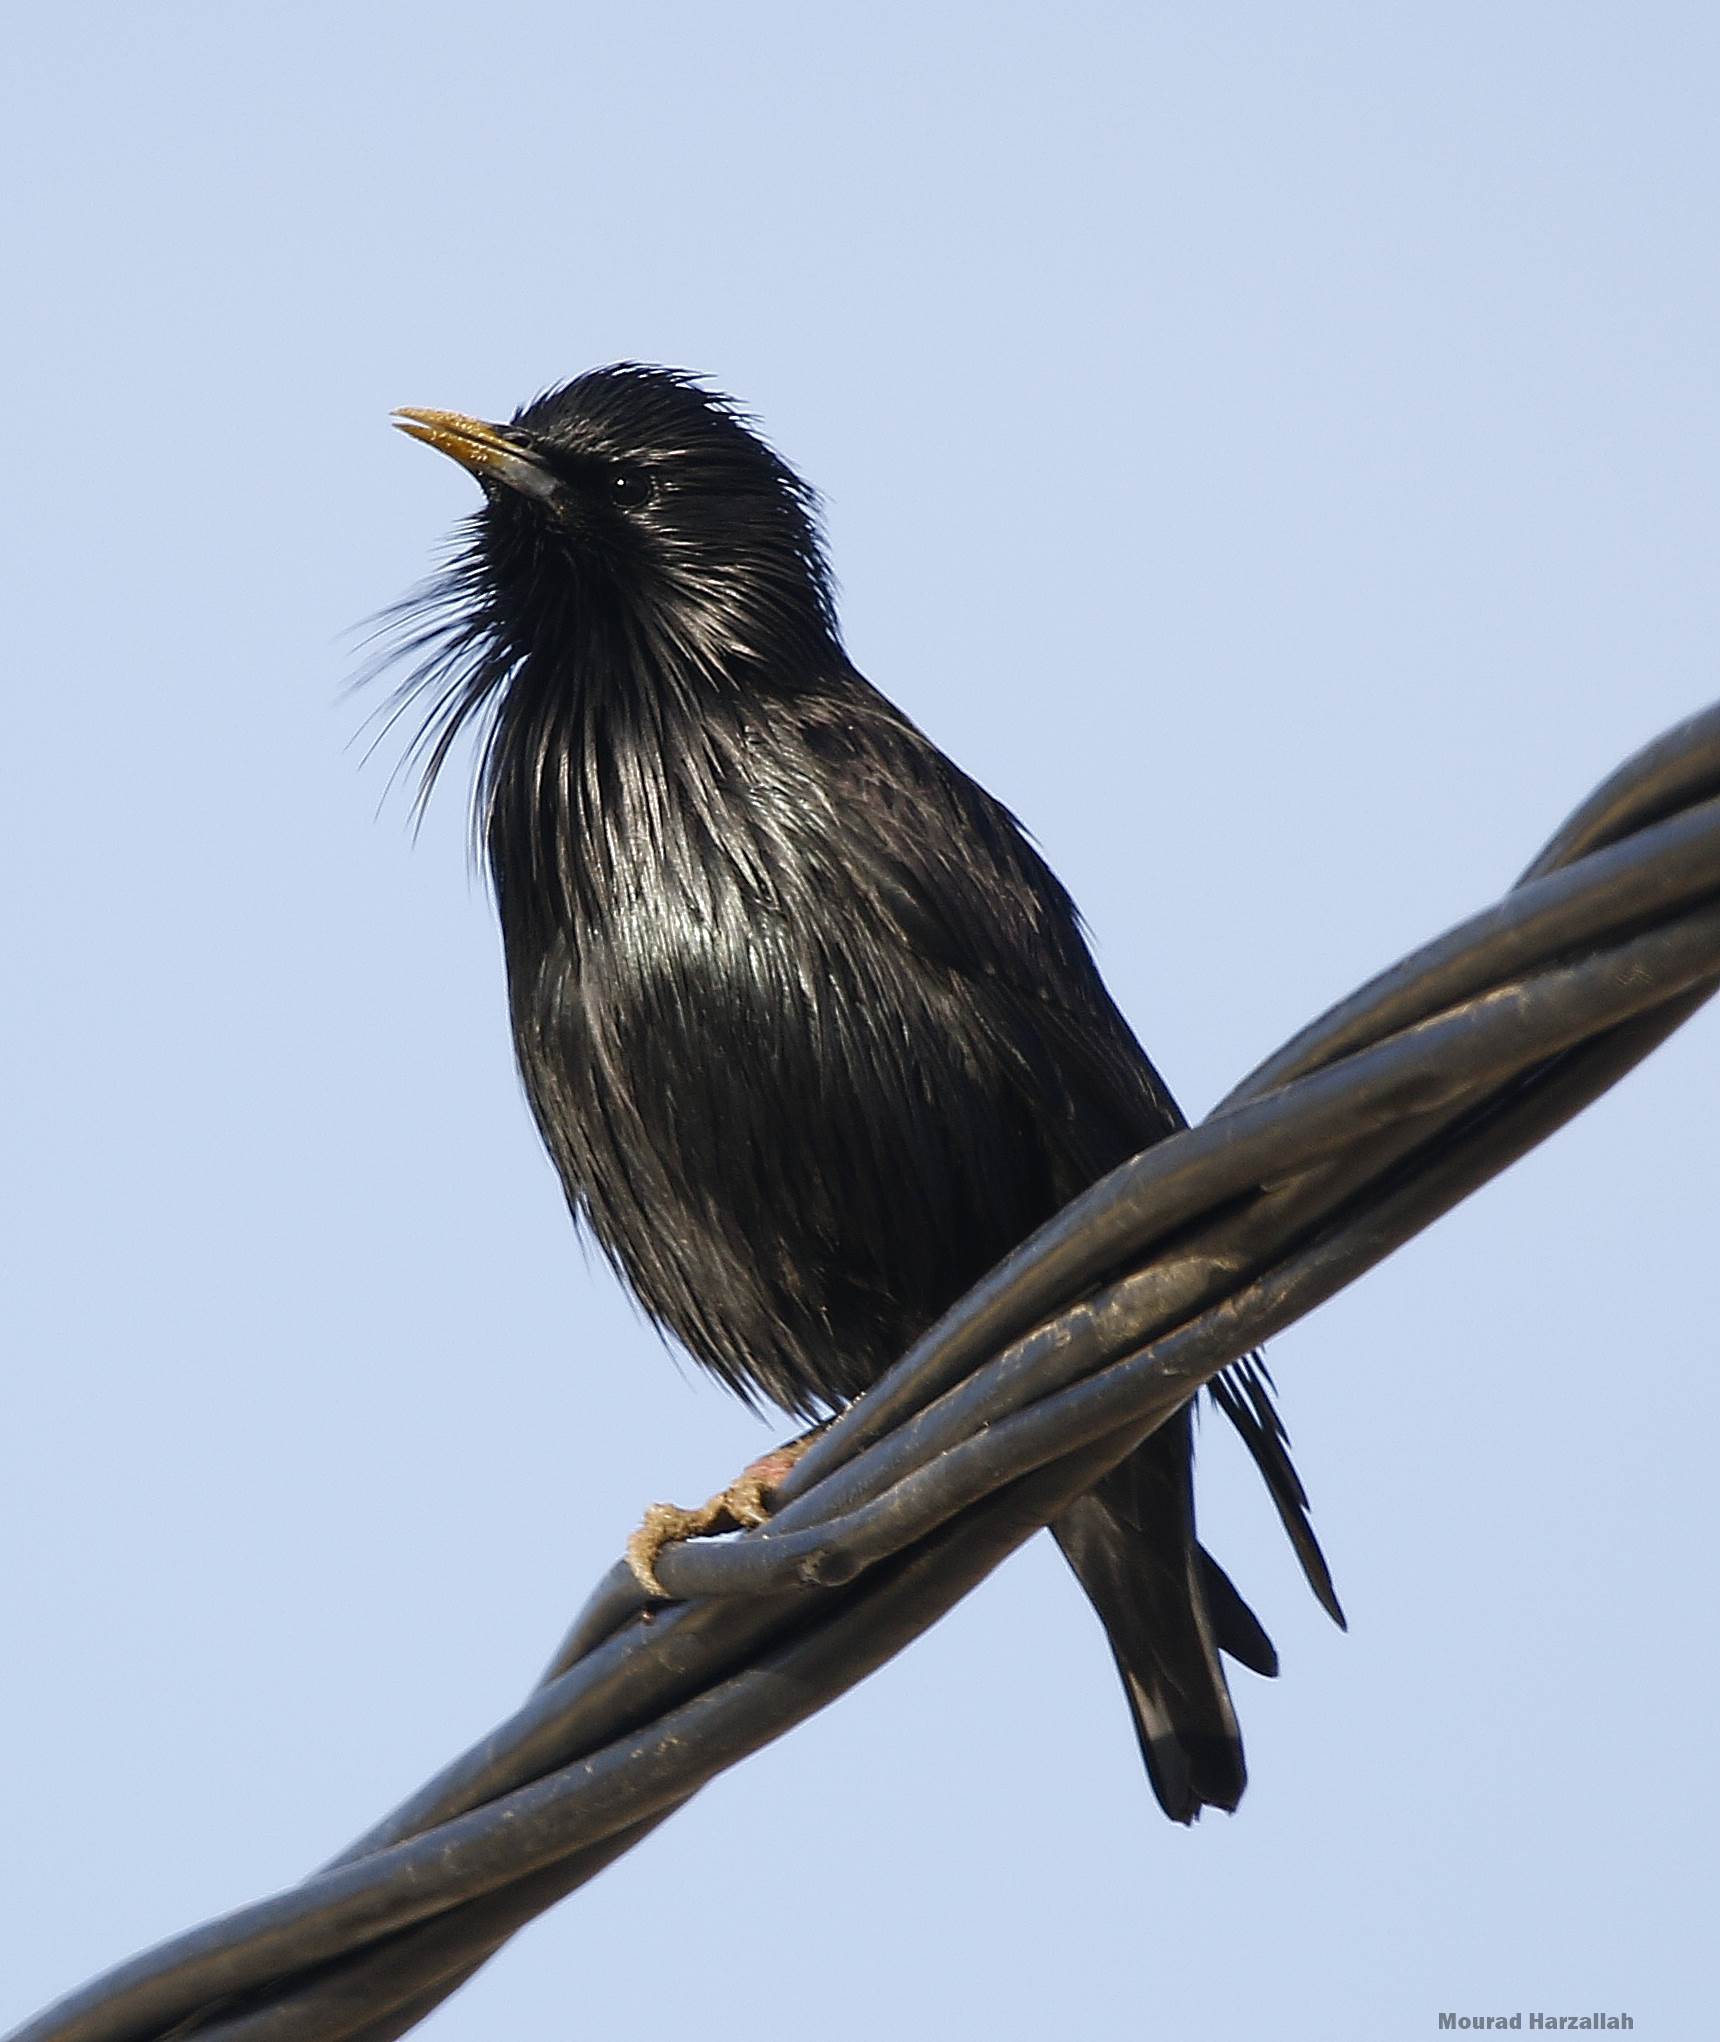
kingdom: Animalia
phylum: Chordata
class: Aves
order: Passeriformes
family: Sturnidae
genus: Sturnus
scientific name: Sturnus unicolor
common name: Spotless starling
